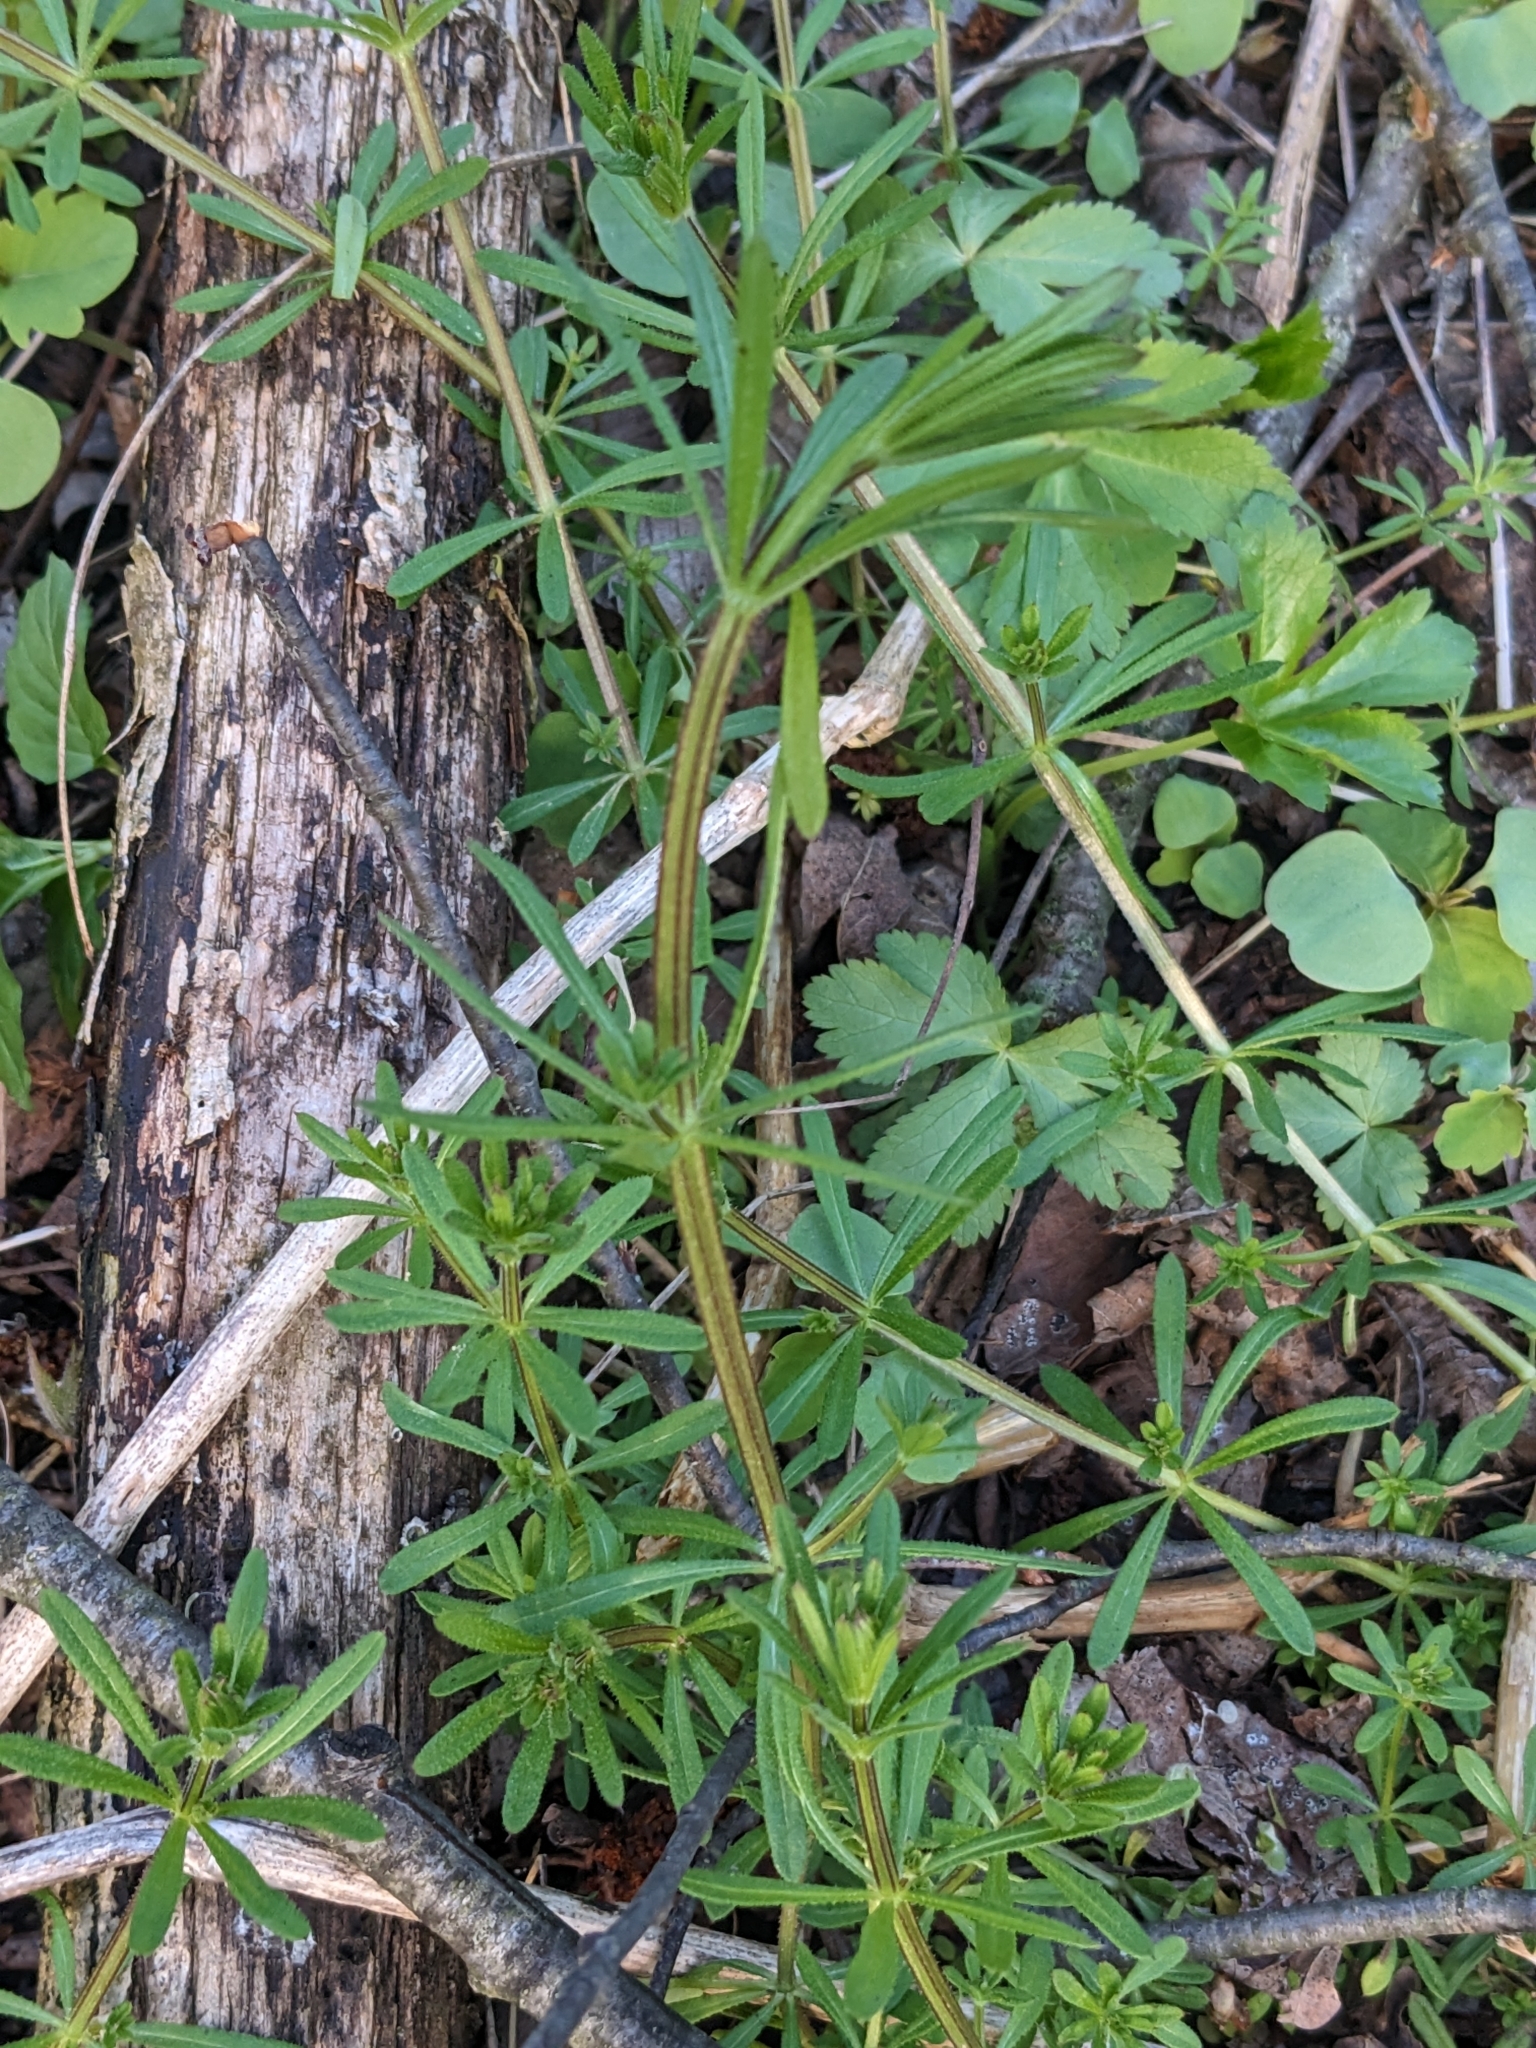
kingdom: Plantae
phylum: Tracheophyta
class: Magnoliopsida
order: Gentianales
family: Rubiaceae
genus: Galium
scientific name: Galium aparine
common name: Cleavers
